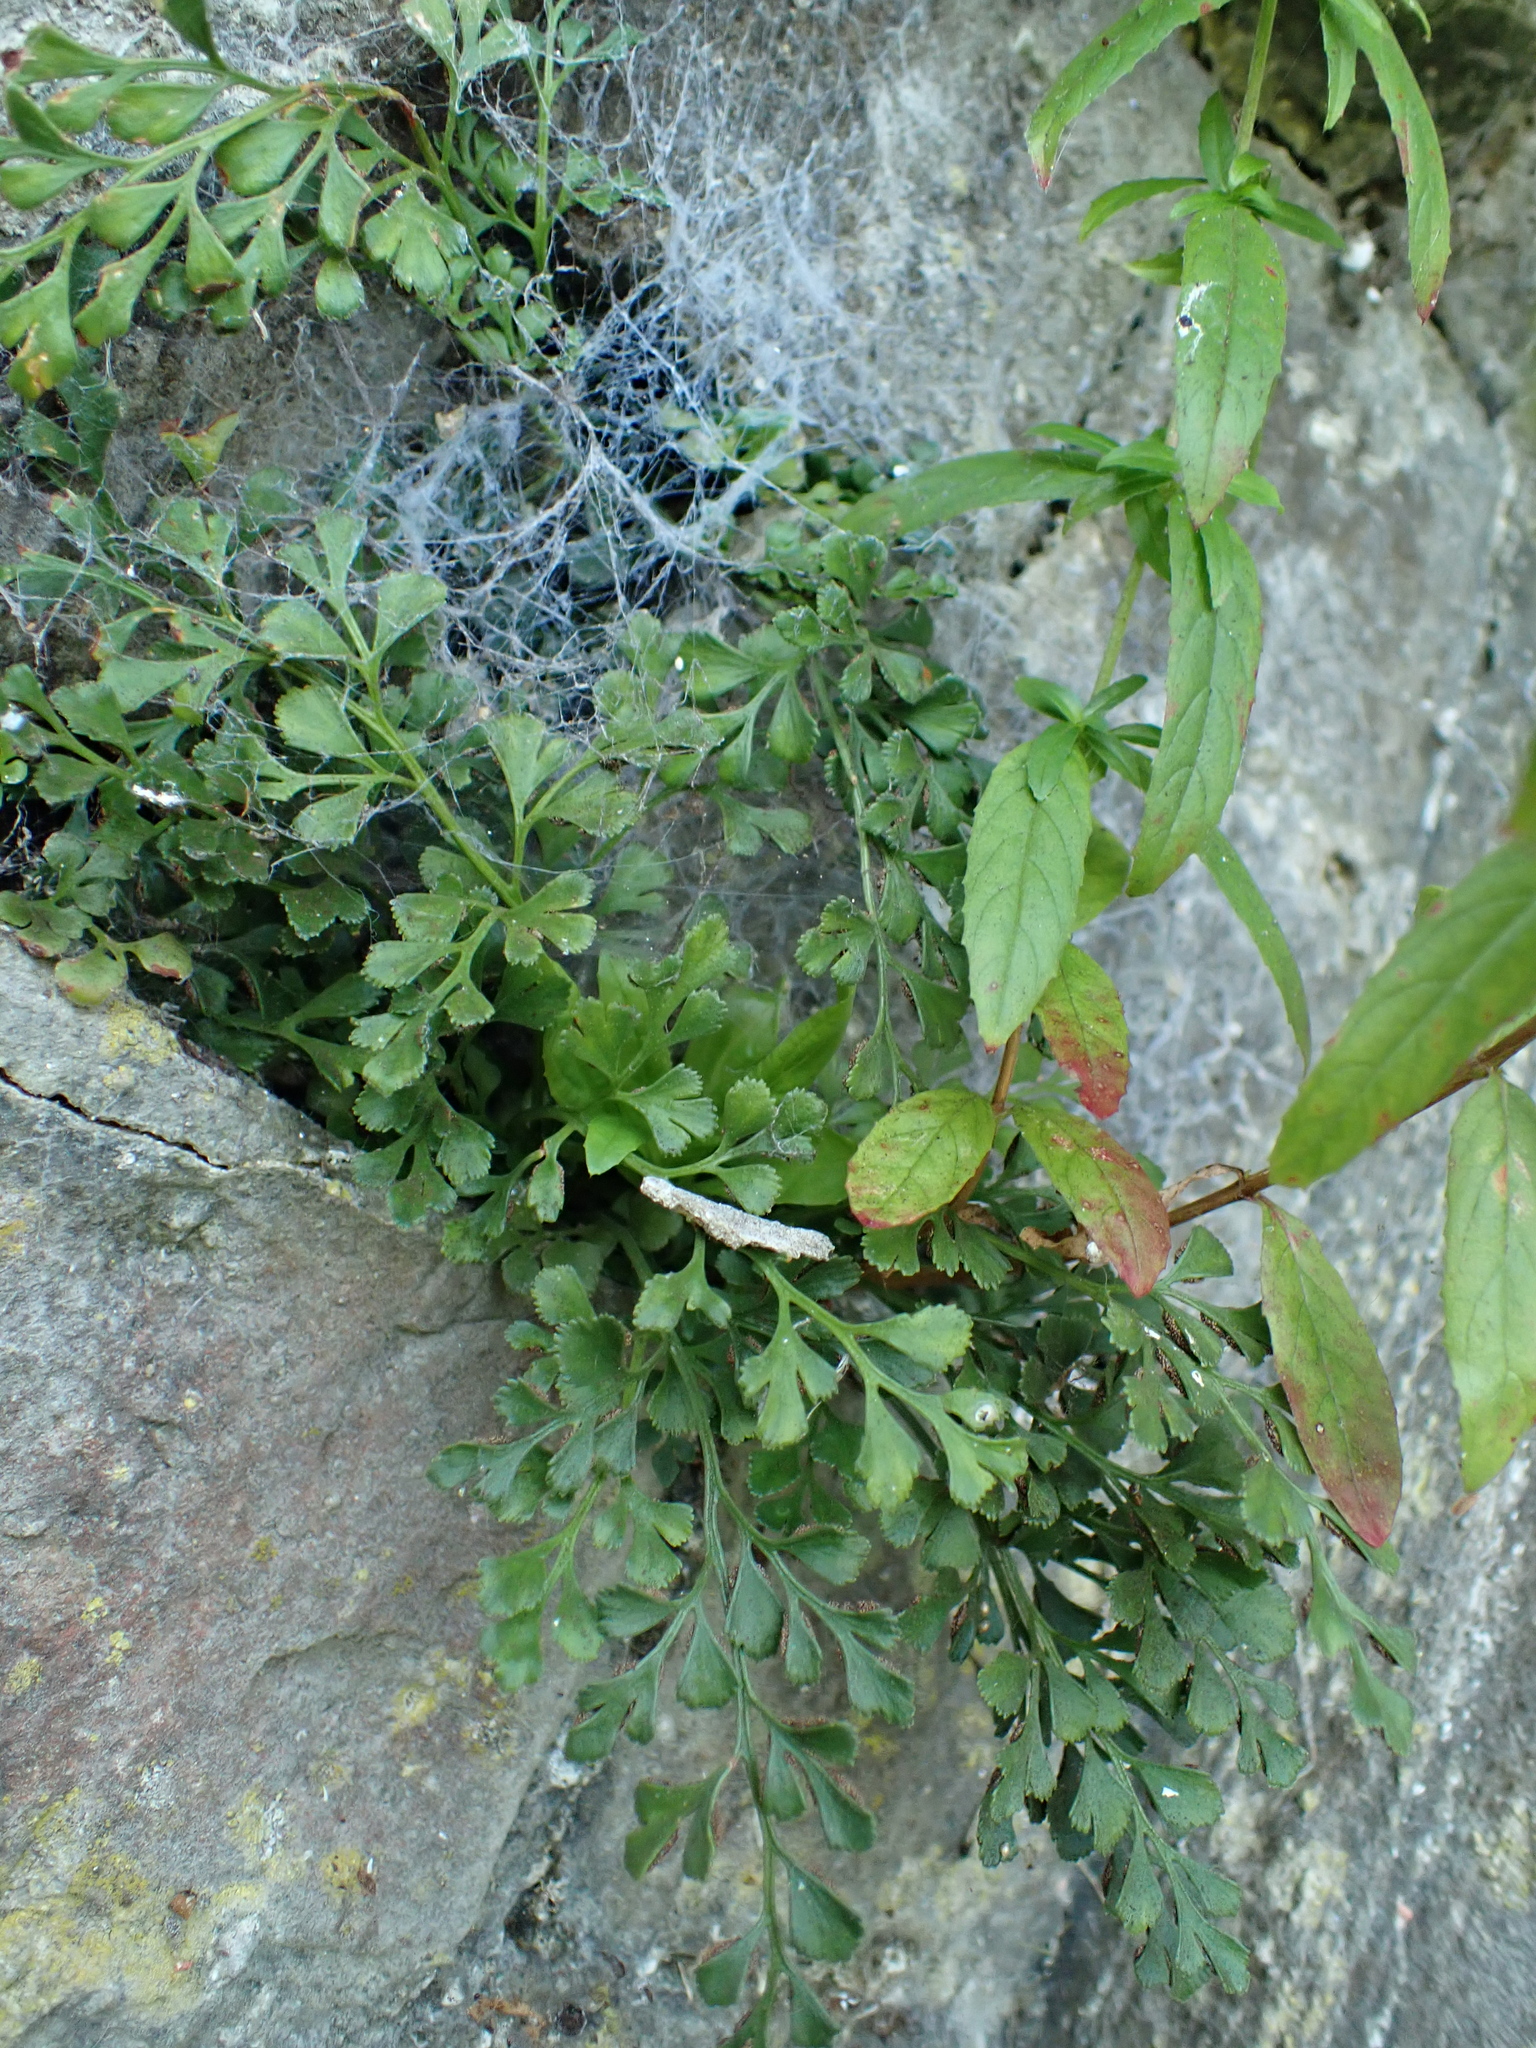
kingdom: Plantae
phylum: Tracheophyta
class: Polypodiopsida
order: Polypodiales
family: Aspleniaceae
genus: Asplenium
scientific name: Asplenium ruta-muraria
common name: Wall-rue
